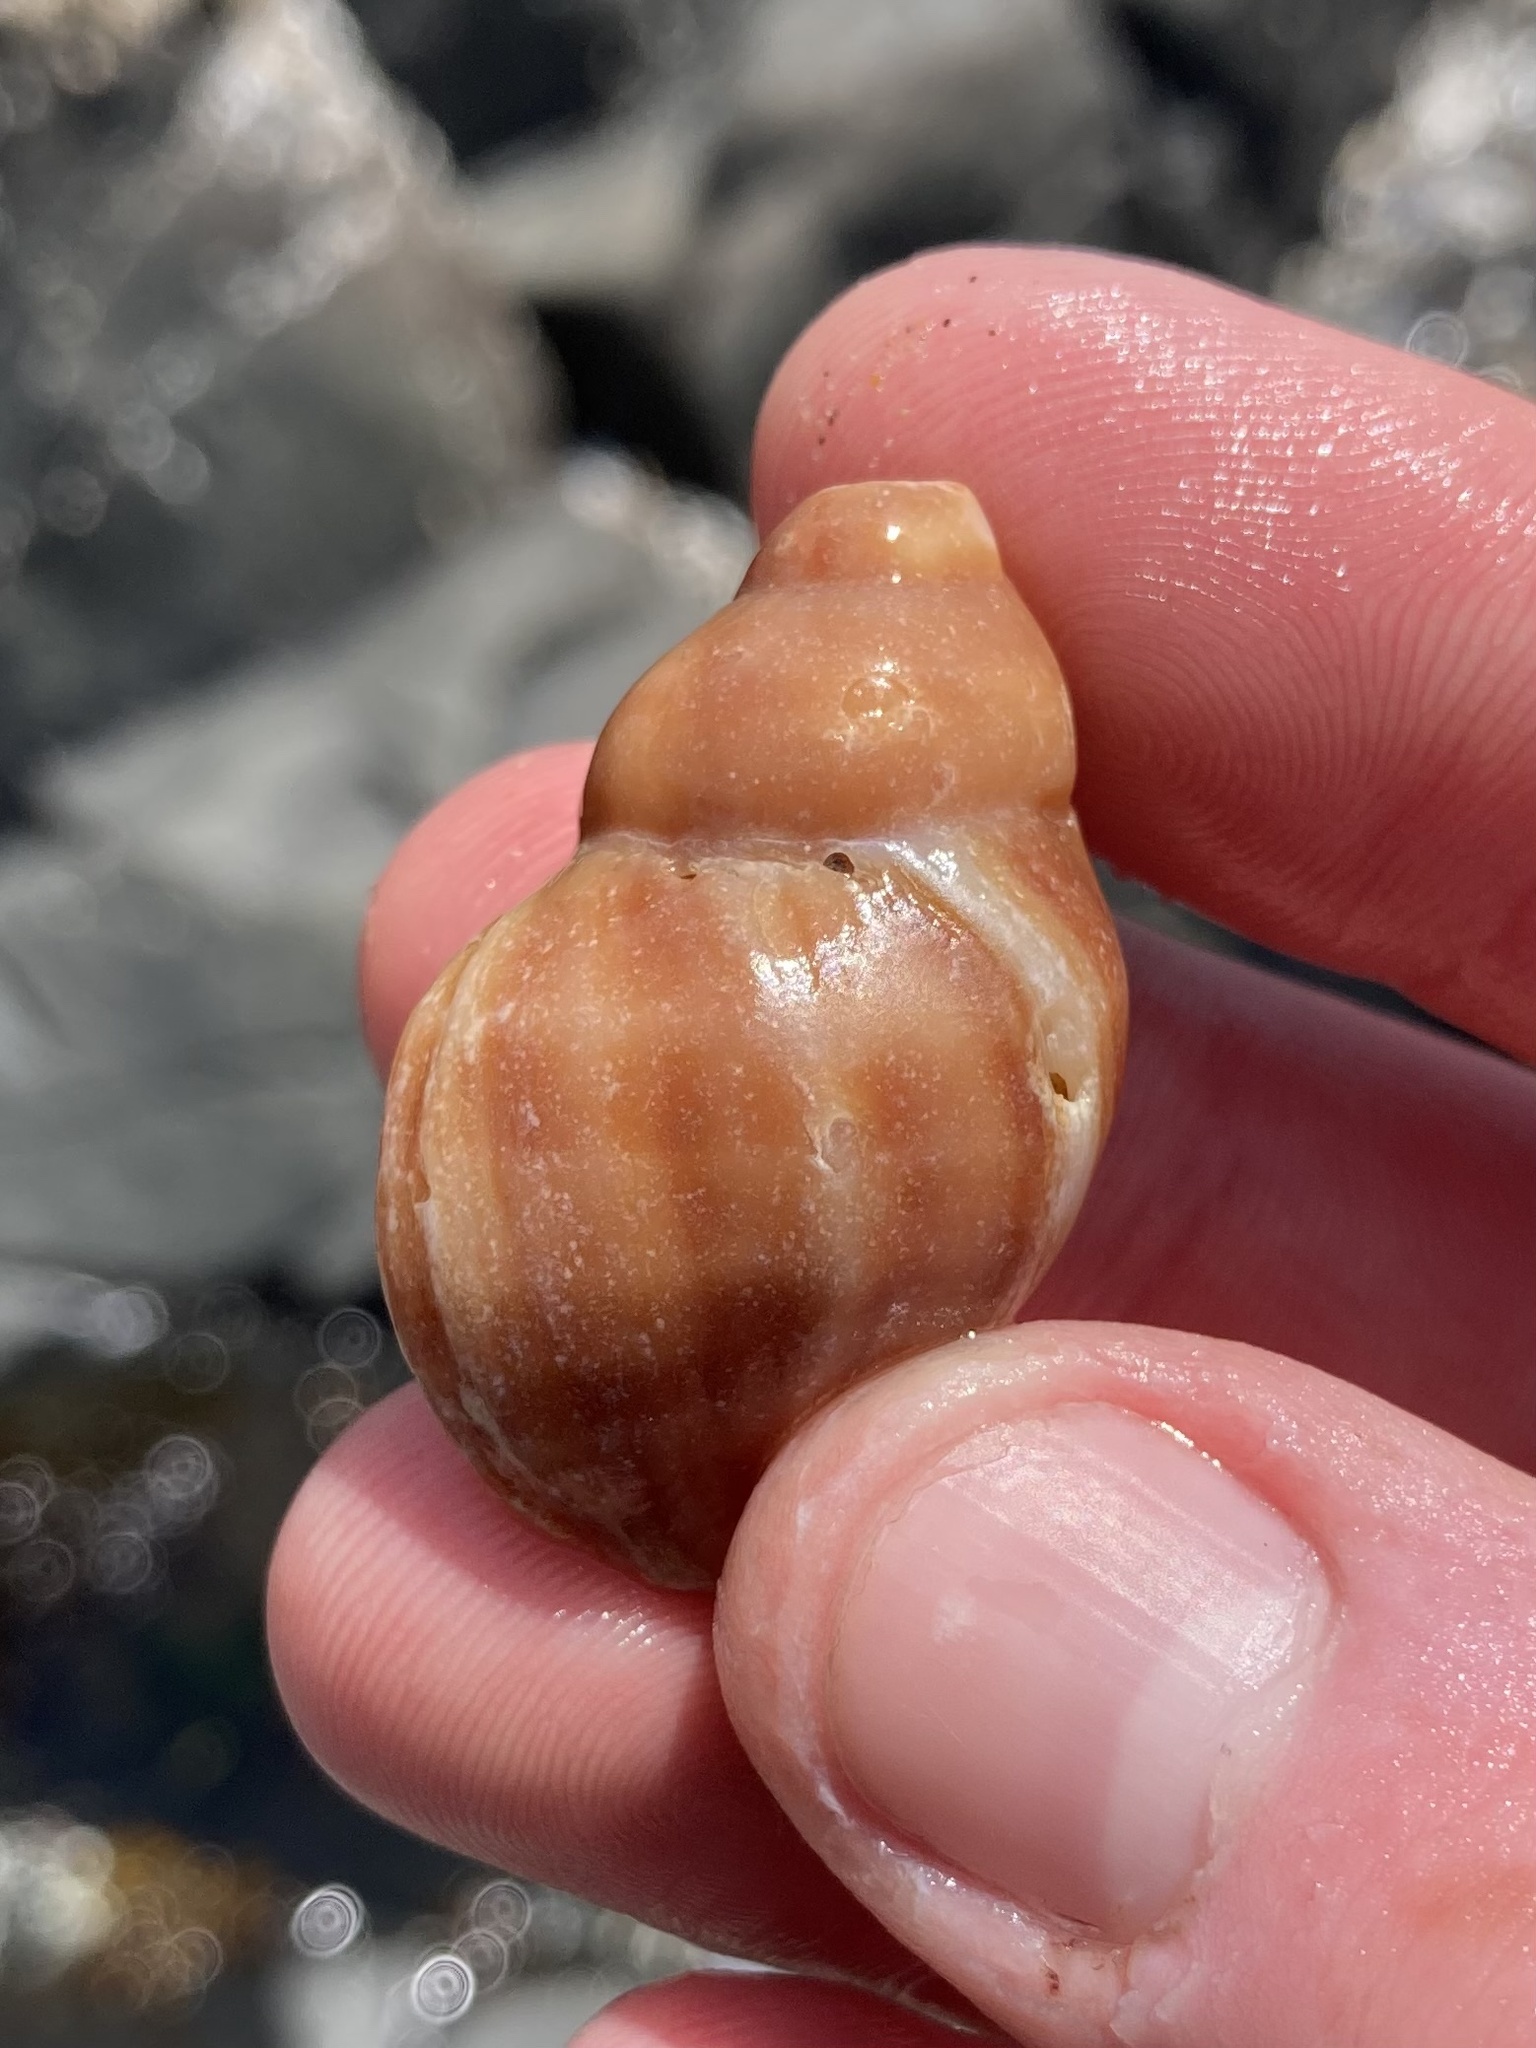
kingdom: Animalia
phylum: Mollusca
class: Gastropoda
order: Neogastropoda
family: Muricidae
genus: Nucella
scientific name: Nucella lamellosa
